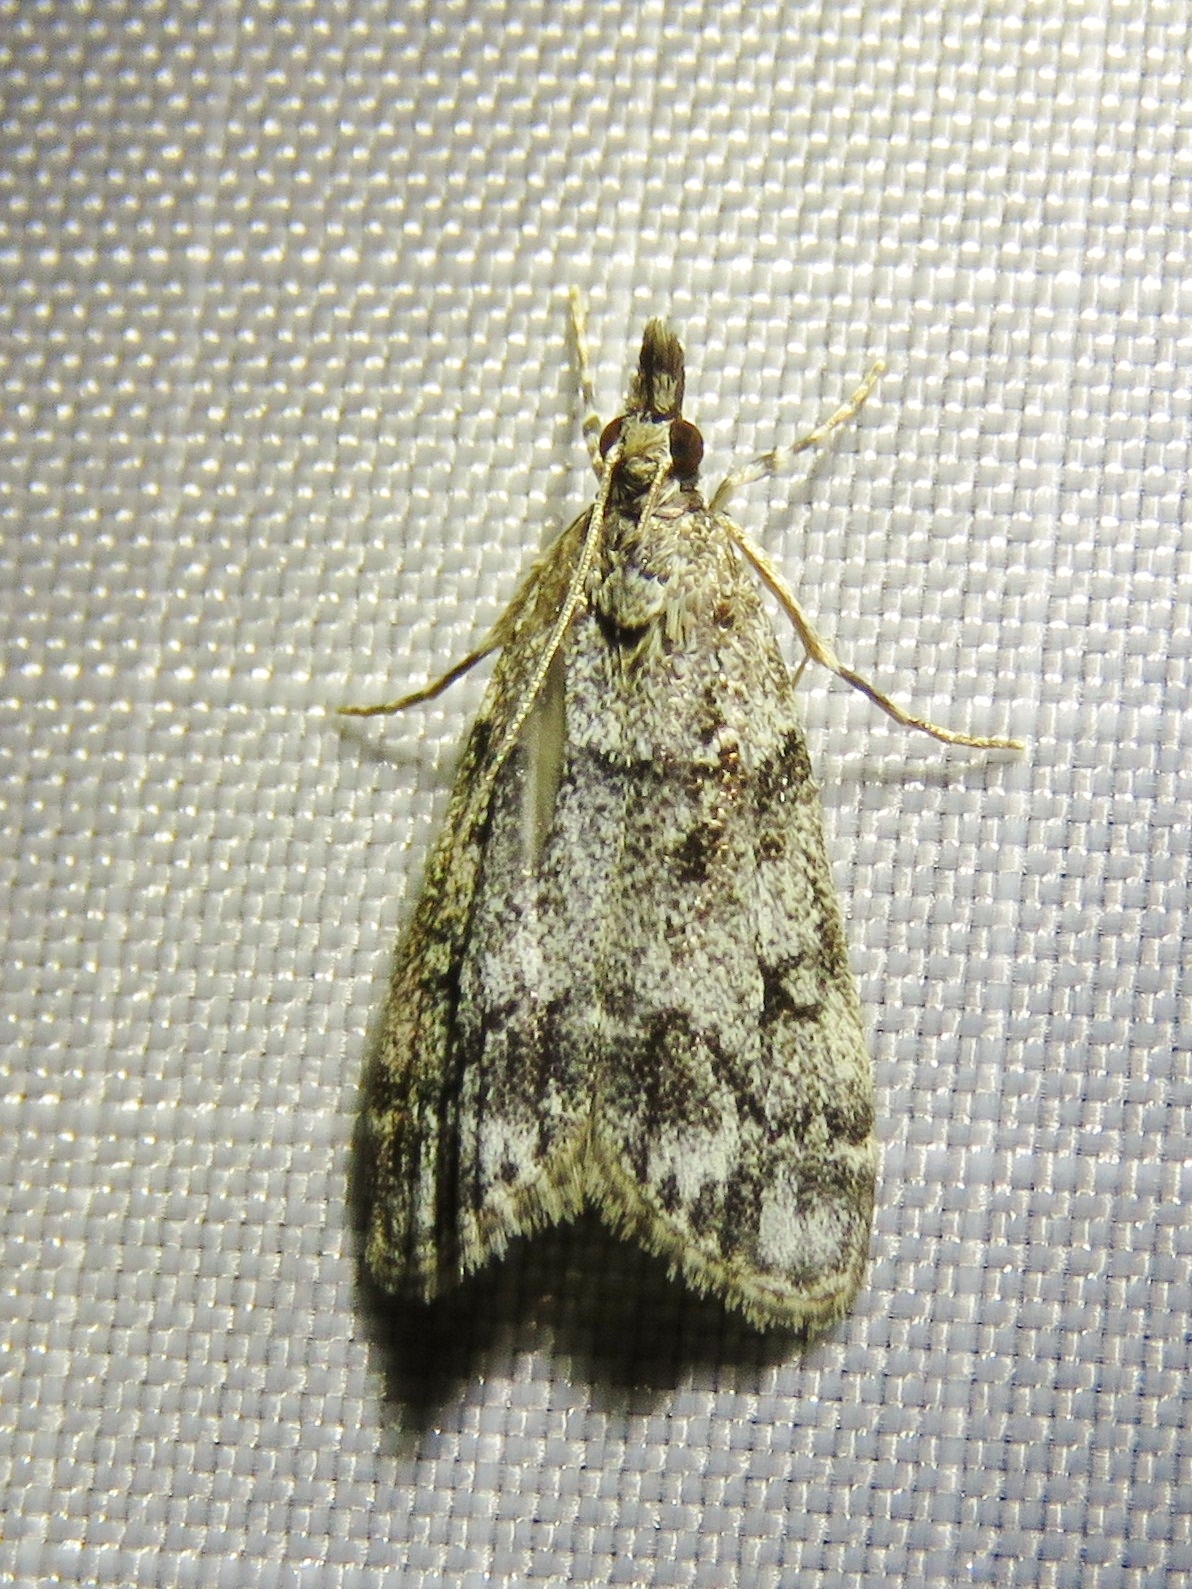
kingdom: Animalia
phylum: Arthropoda
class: Insecta
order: Lepidoptera
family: Crambidae
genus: Eudonia
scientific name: Eudonia lacustrata
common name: Little grey
